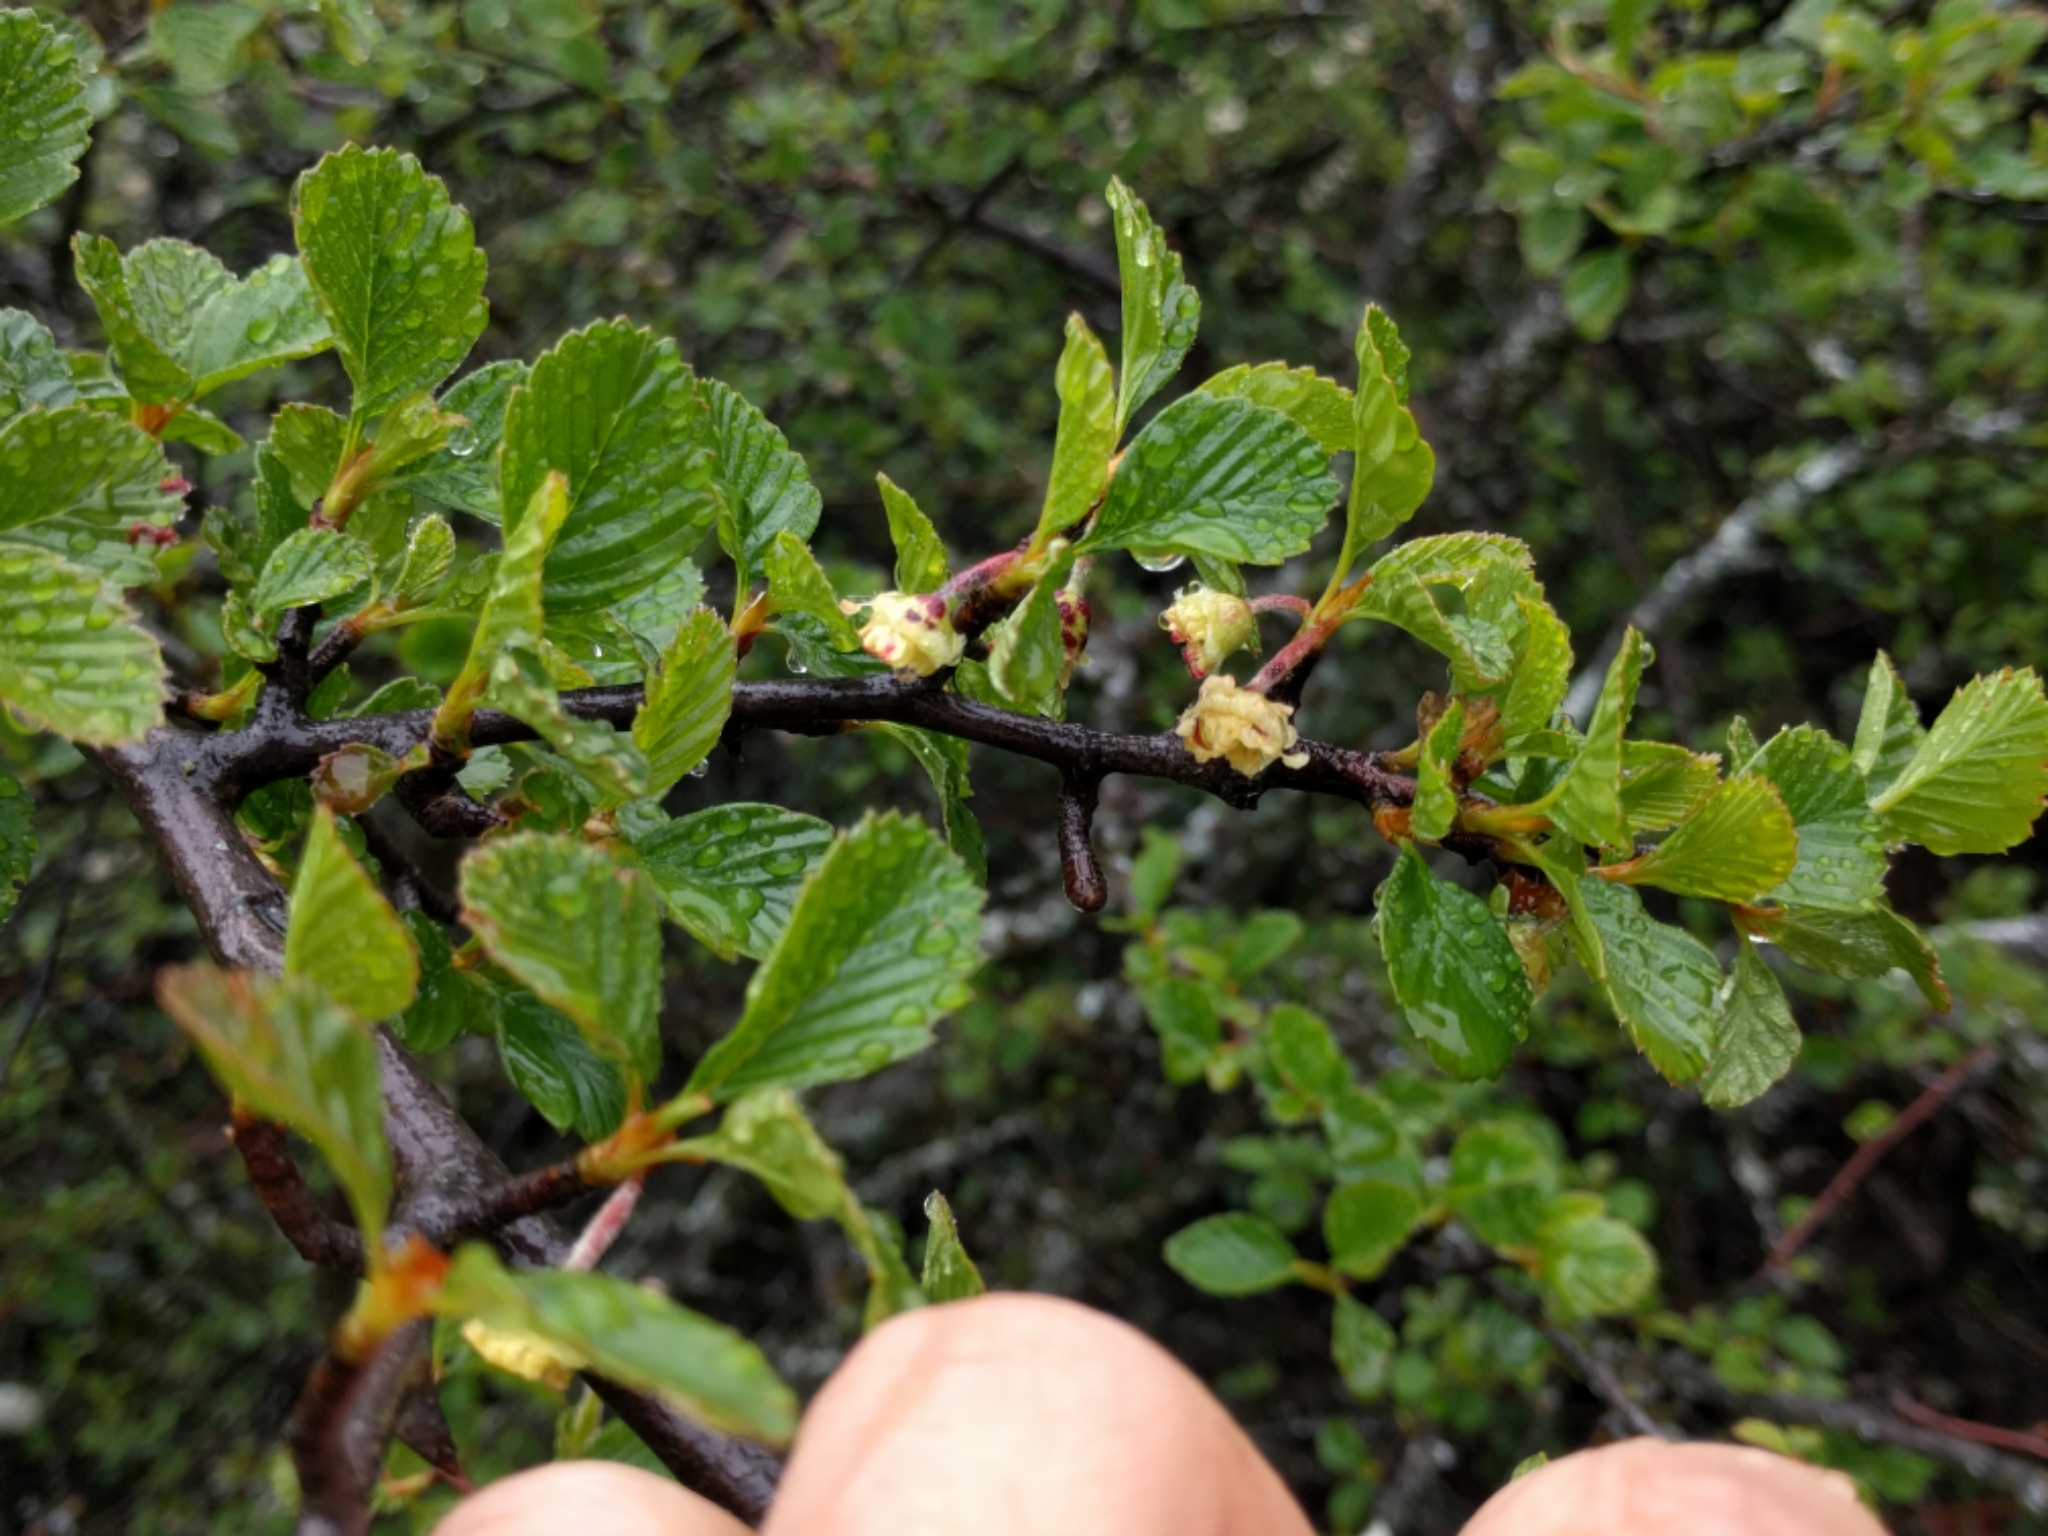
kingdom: Plantae
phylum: Tracheophyta
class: Magnoliopsida
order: Rosales
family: Rosaceae
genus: Cercocarpus
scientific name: Cercocarpus betuloides
